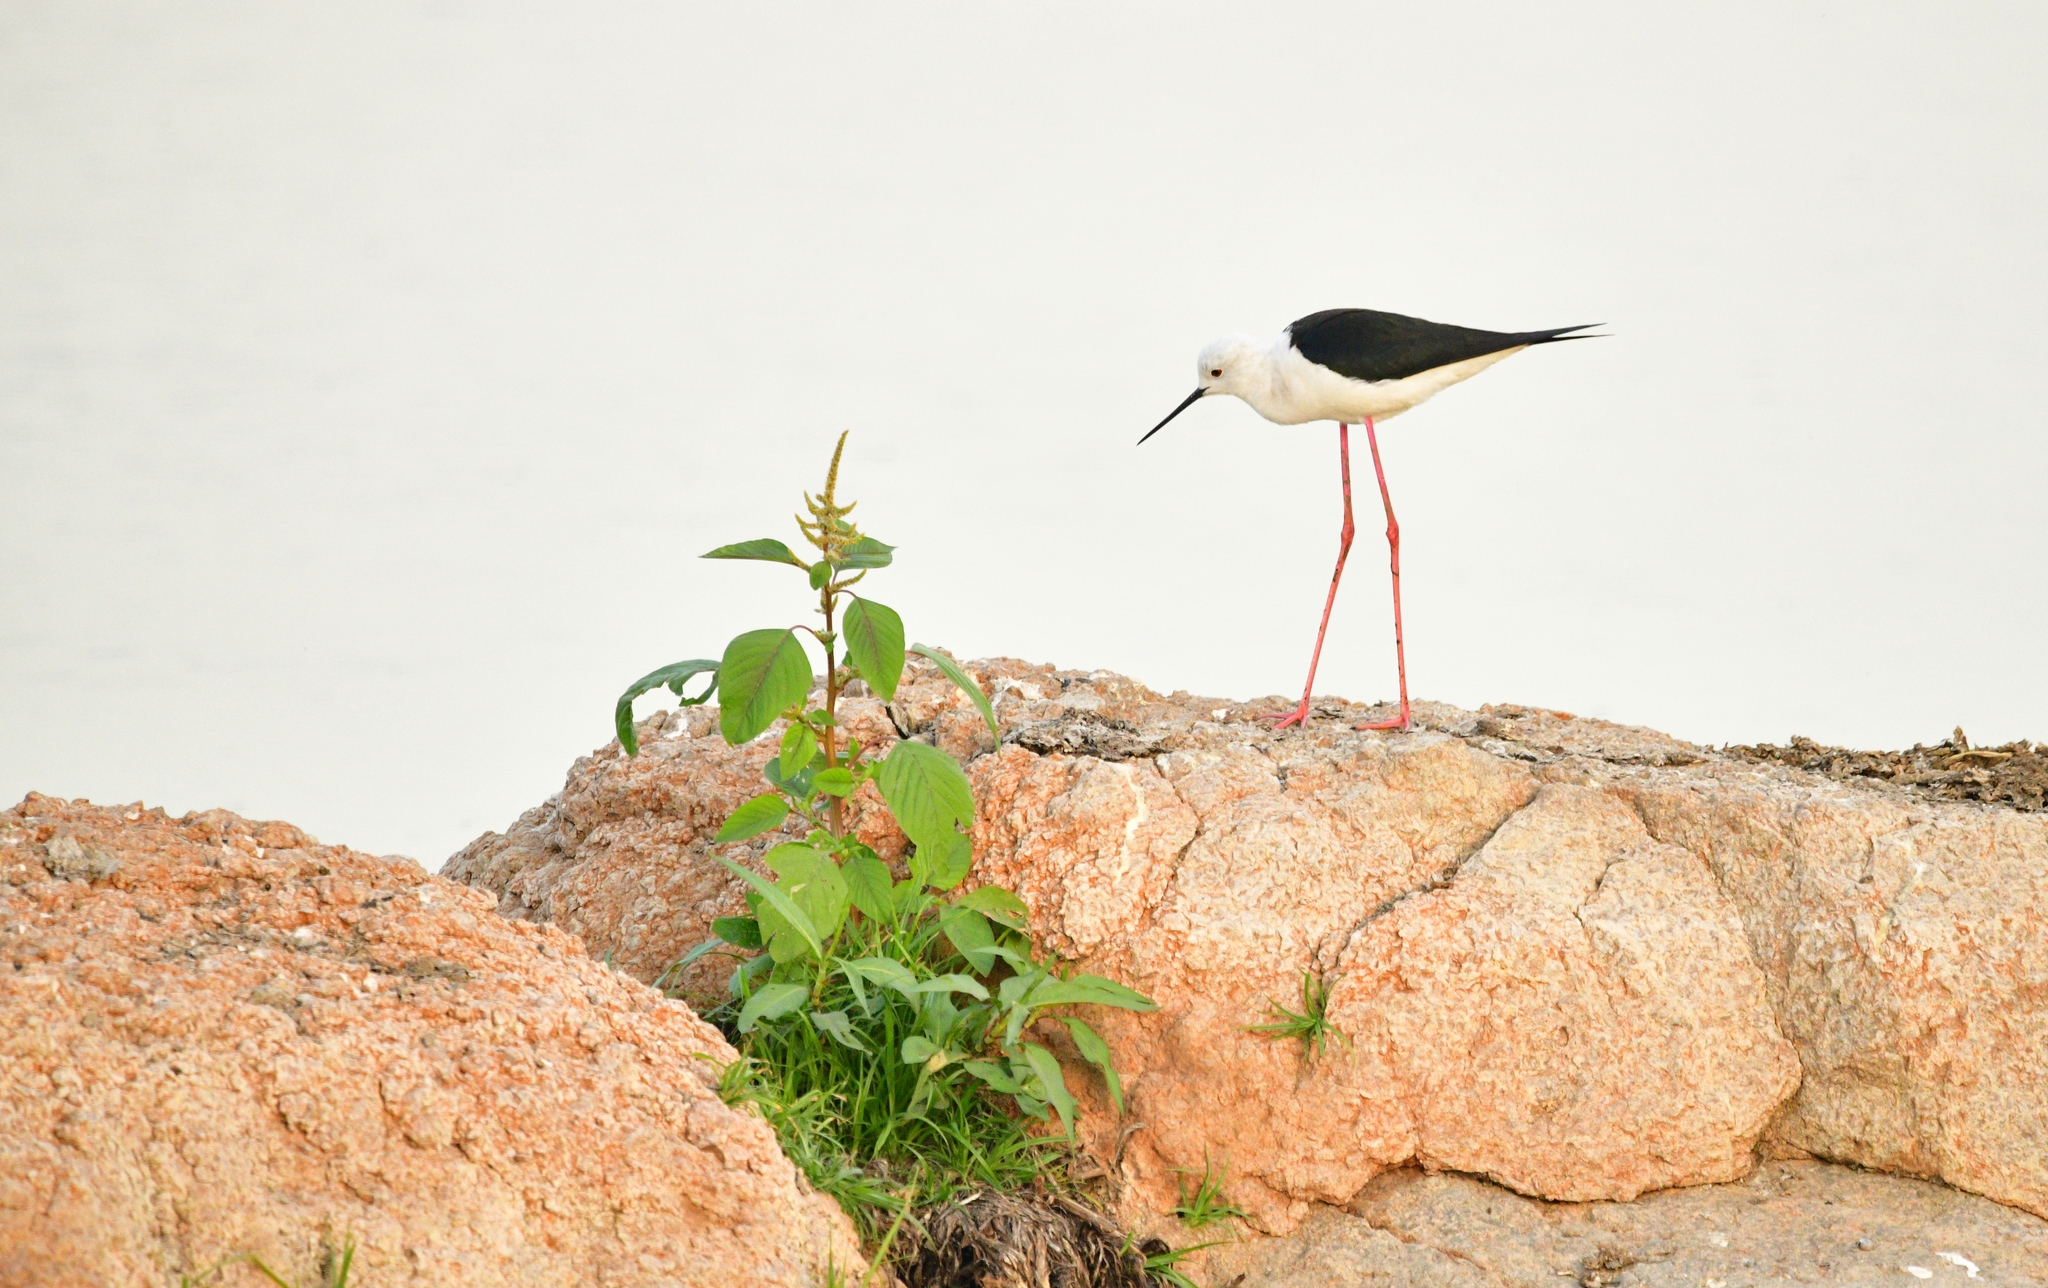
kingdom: Animalia
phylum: Chordata
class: Aves
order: Charadriiformes
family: Recurvirostridae
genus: Himantopus
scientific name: Himantopus himantopus
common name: Black-winged stilt
